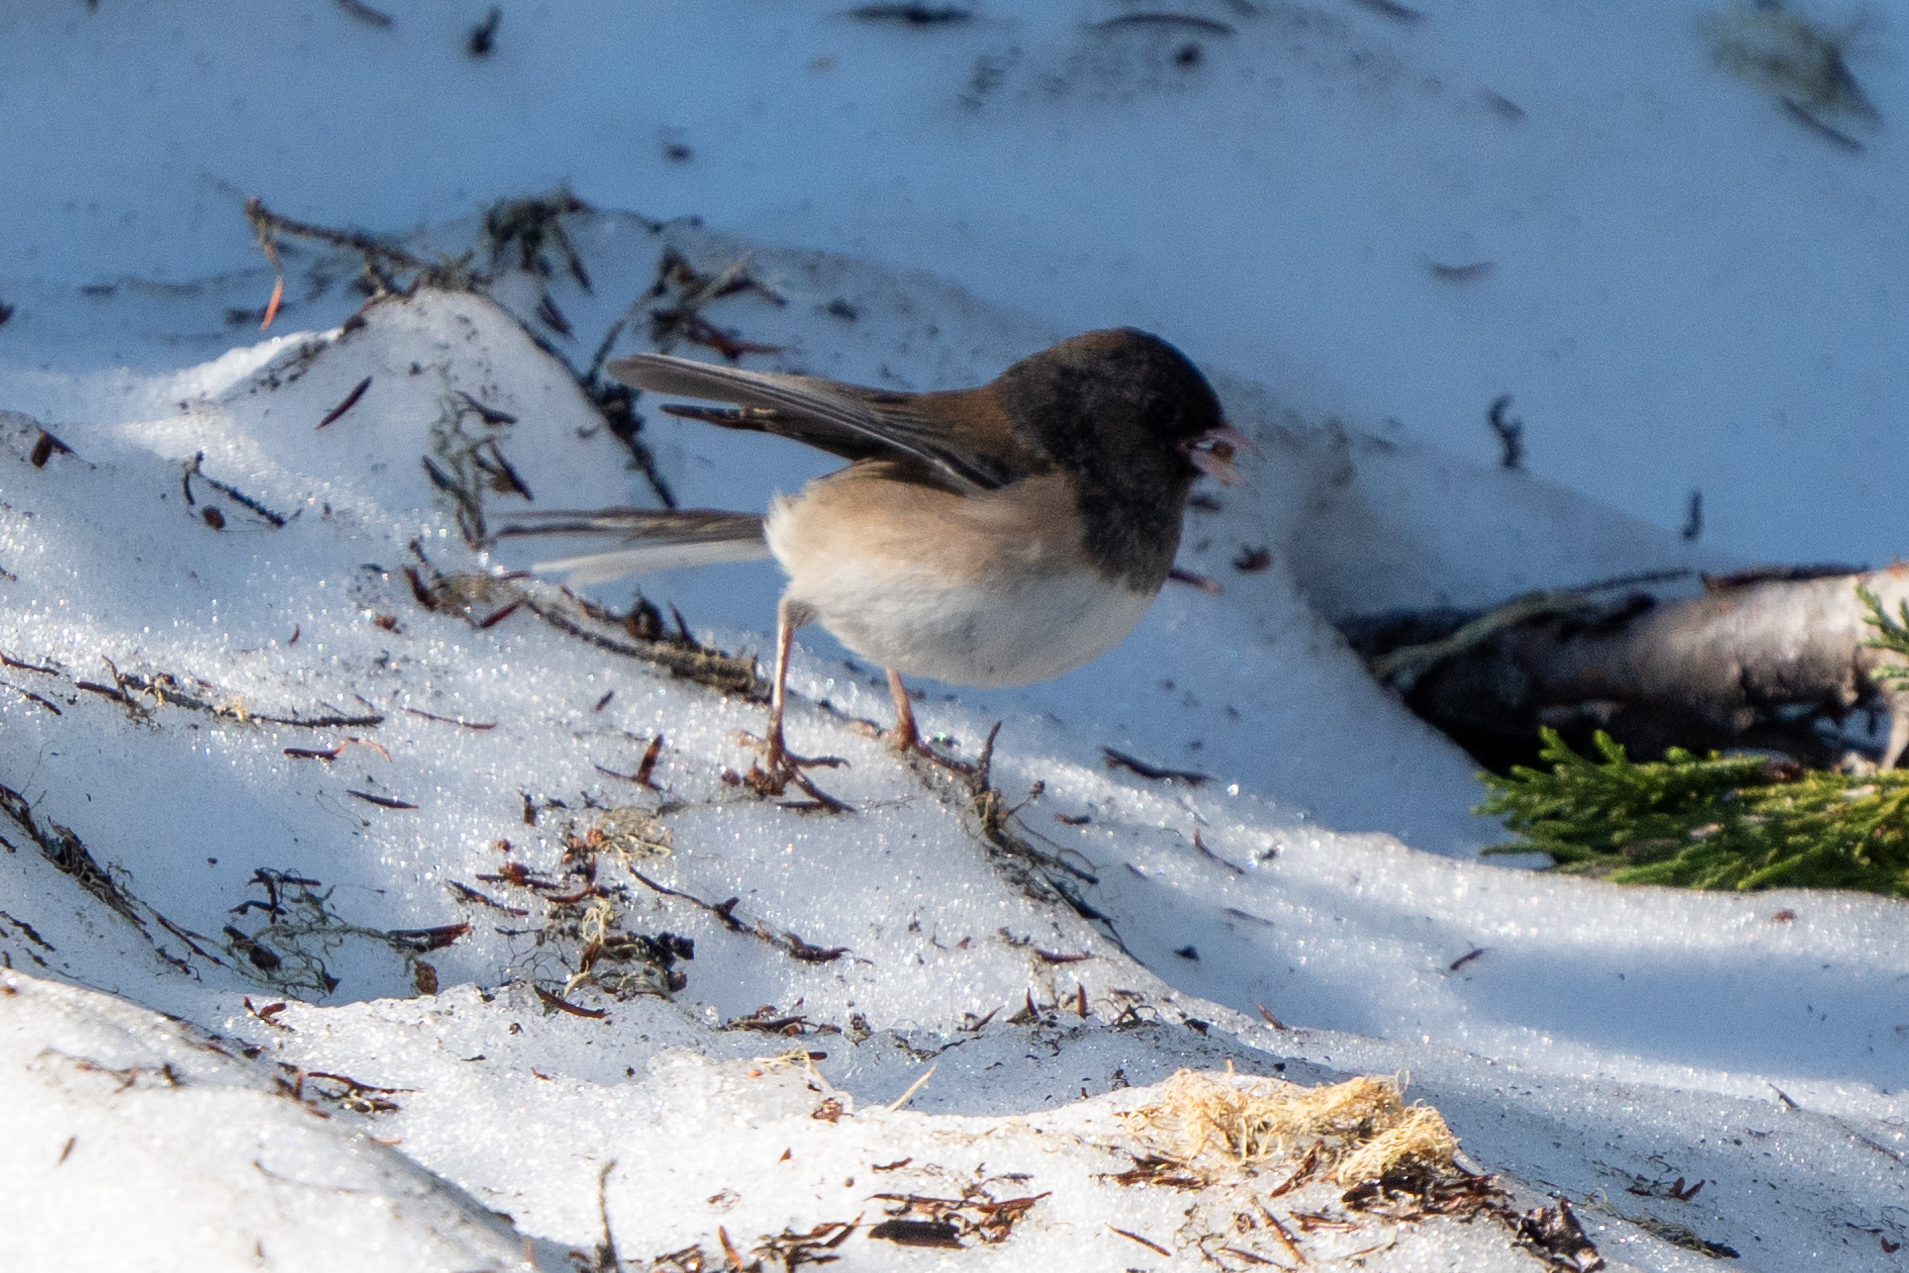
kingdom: Animalia
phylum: Chordata
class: Aves
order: Passeriformes
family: Passerellidae
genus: Junco
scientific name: Junco hyemalis
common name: Dark-eyed junco
